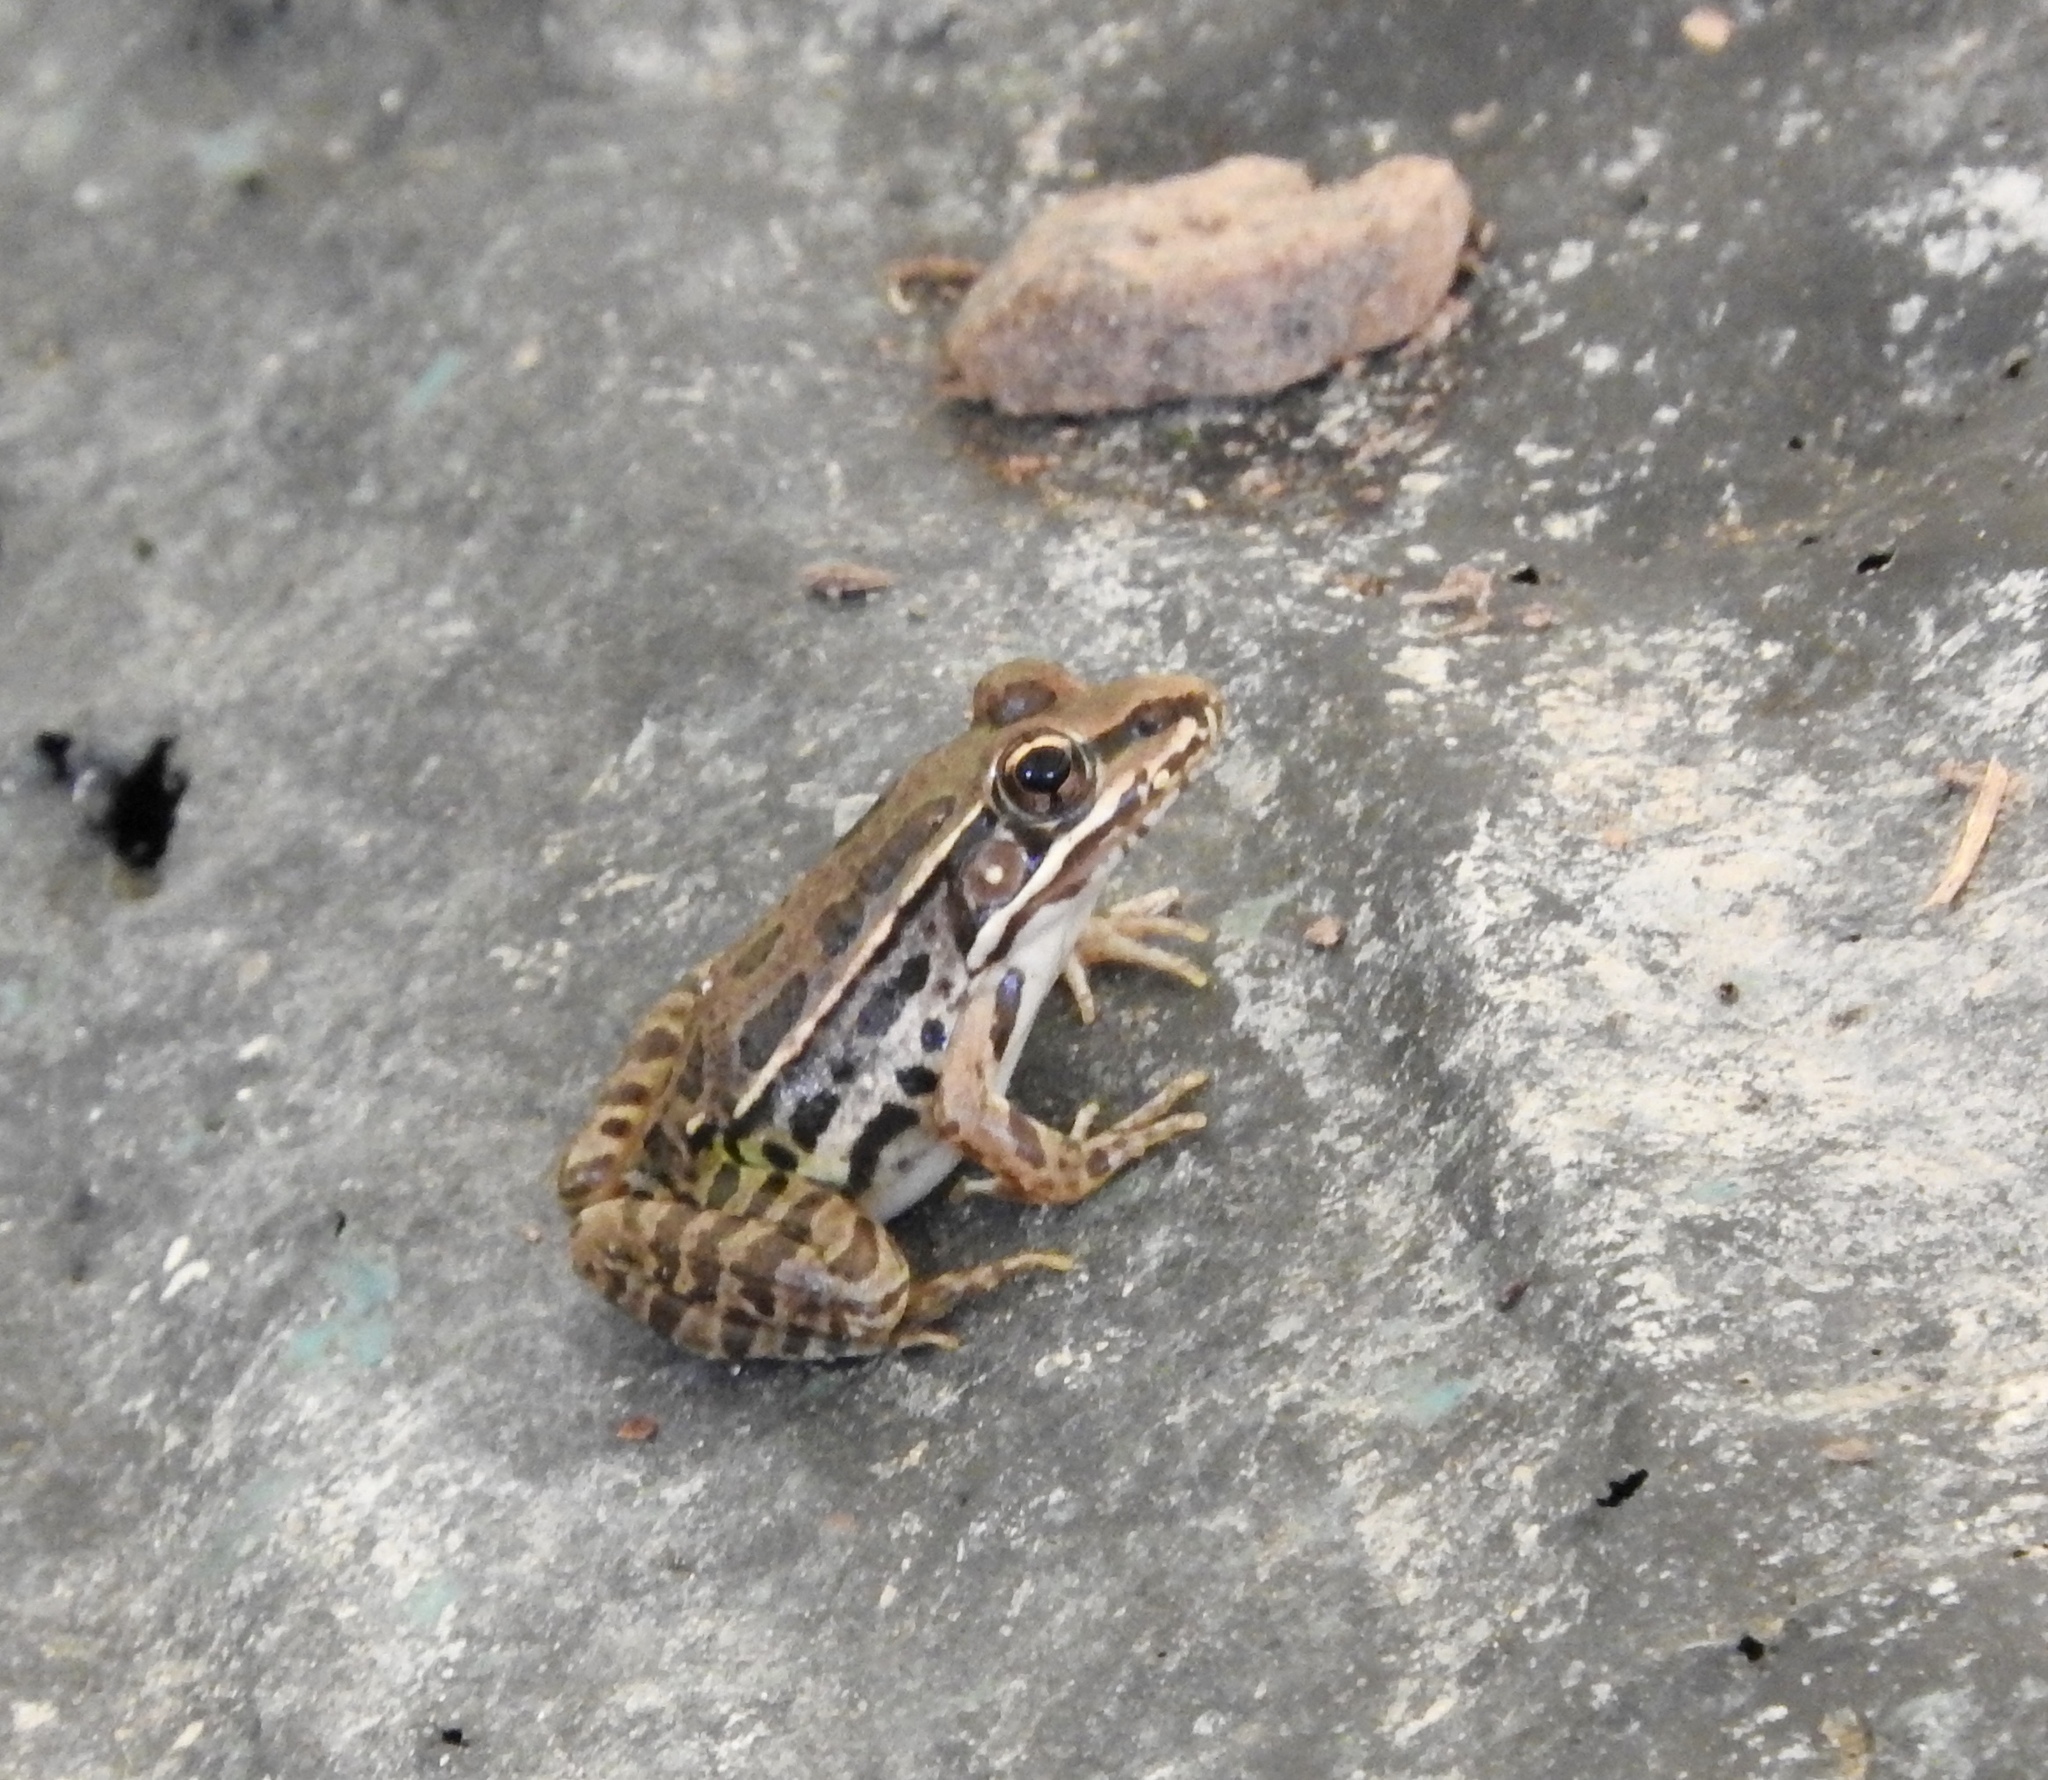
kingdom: Animalia
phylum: Chordata
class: Amphibia
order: Anura
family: Ranidae
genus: Lithobates
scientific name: Lithobates berlandieri
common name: Rio grande leopard frog
